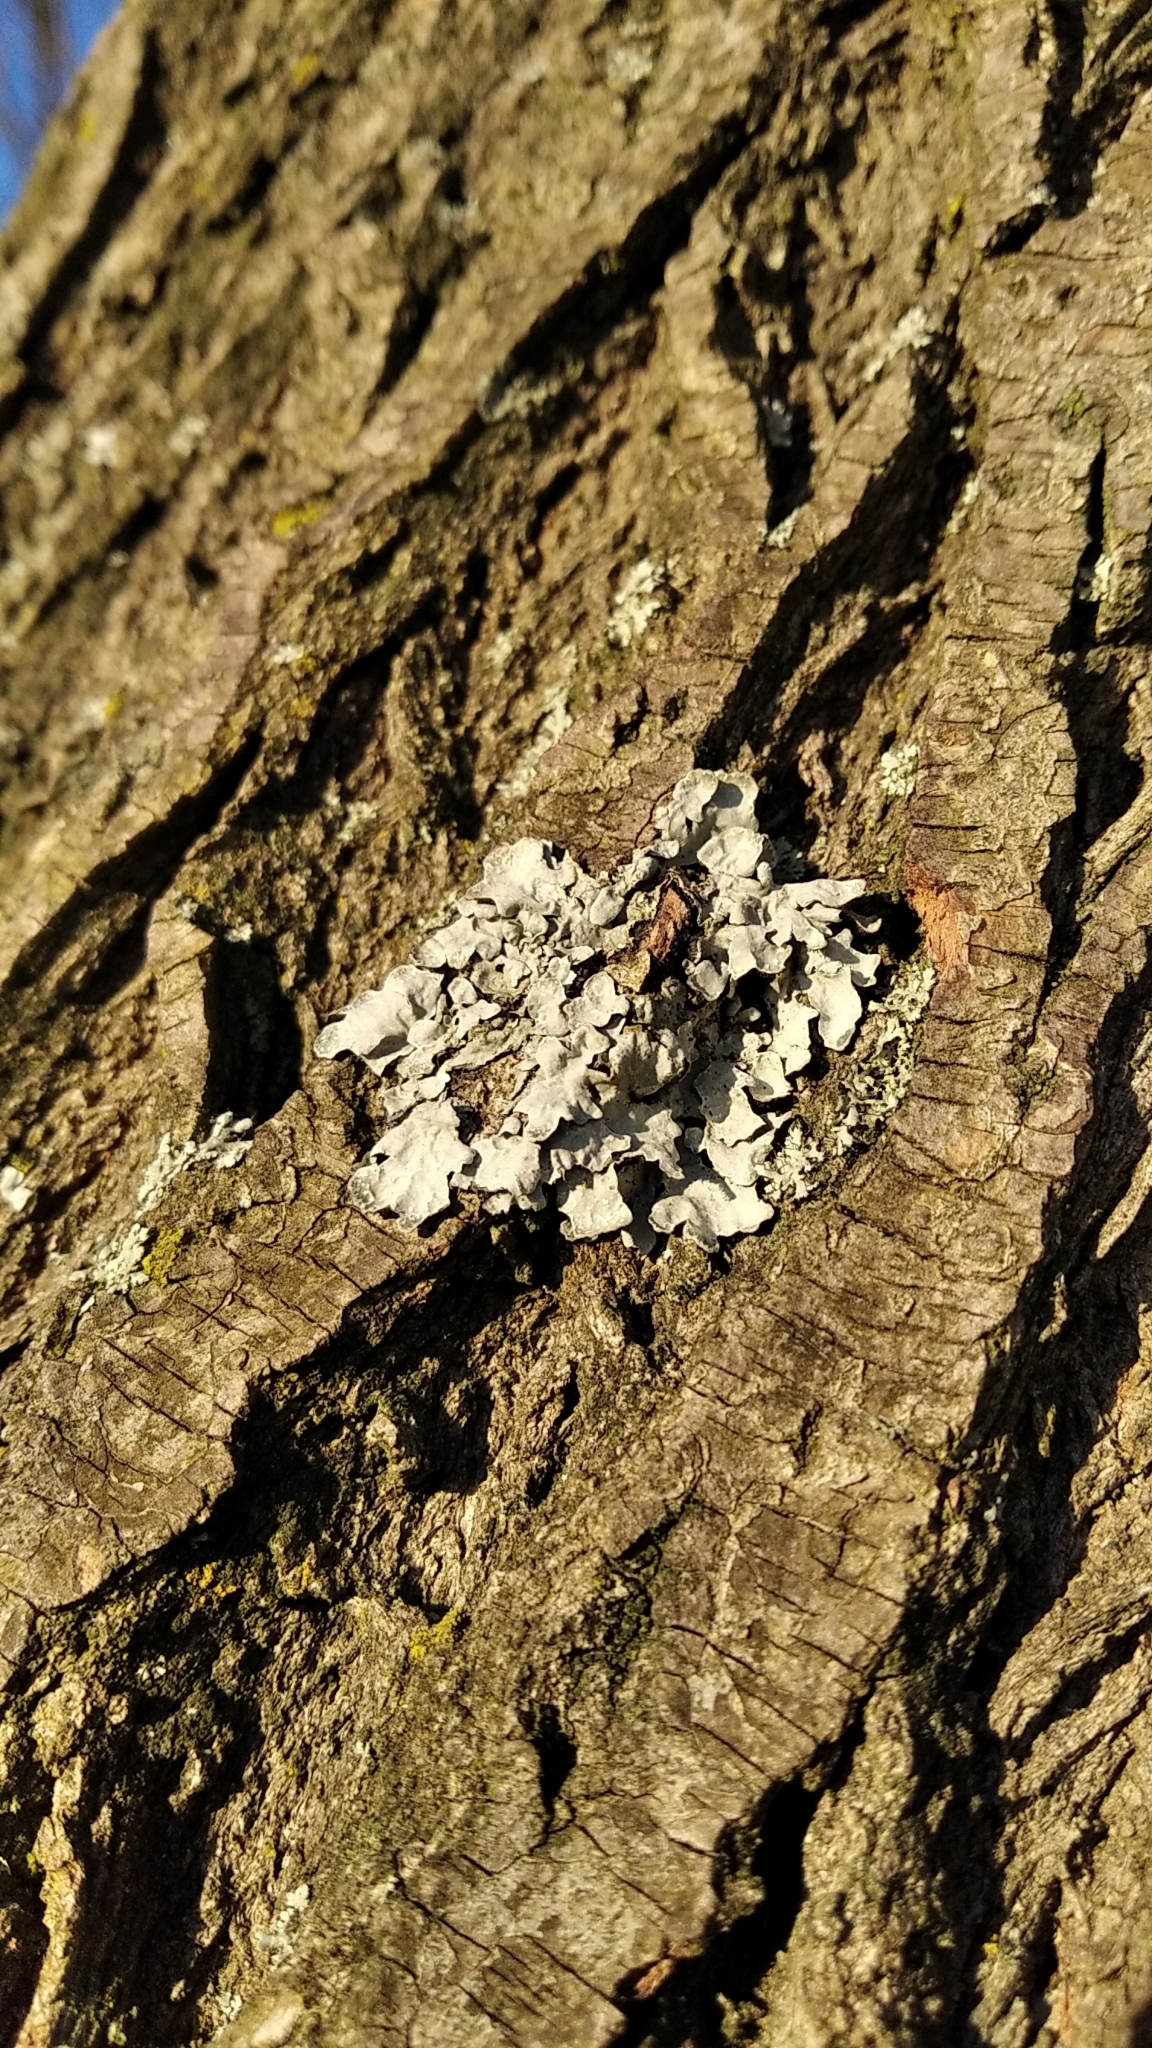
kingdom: Fungi
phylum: Ascomycota
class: Lecanoromycetes
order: Lecanorales
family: Parmeliaceae
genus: Parmelia
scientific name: Parmelia sulcata
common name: Netted shield lichen
